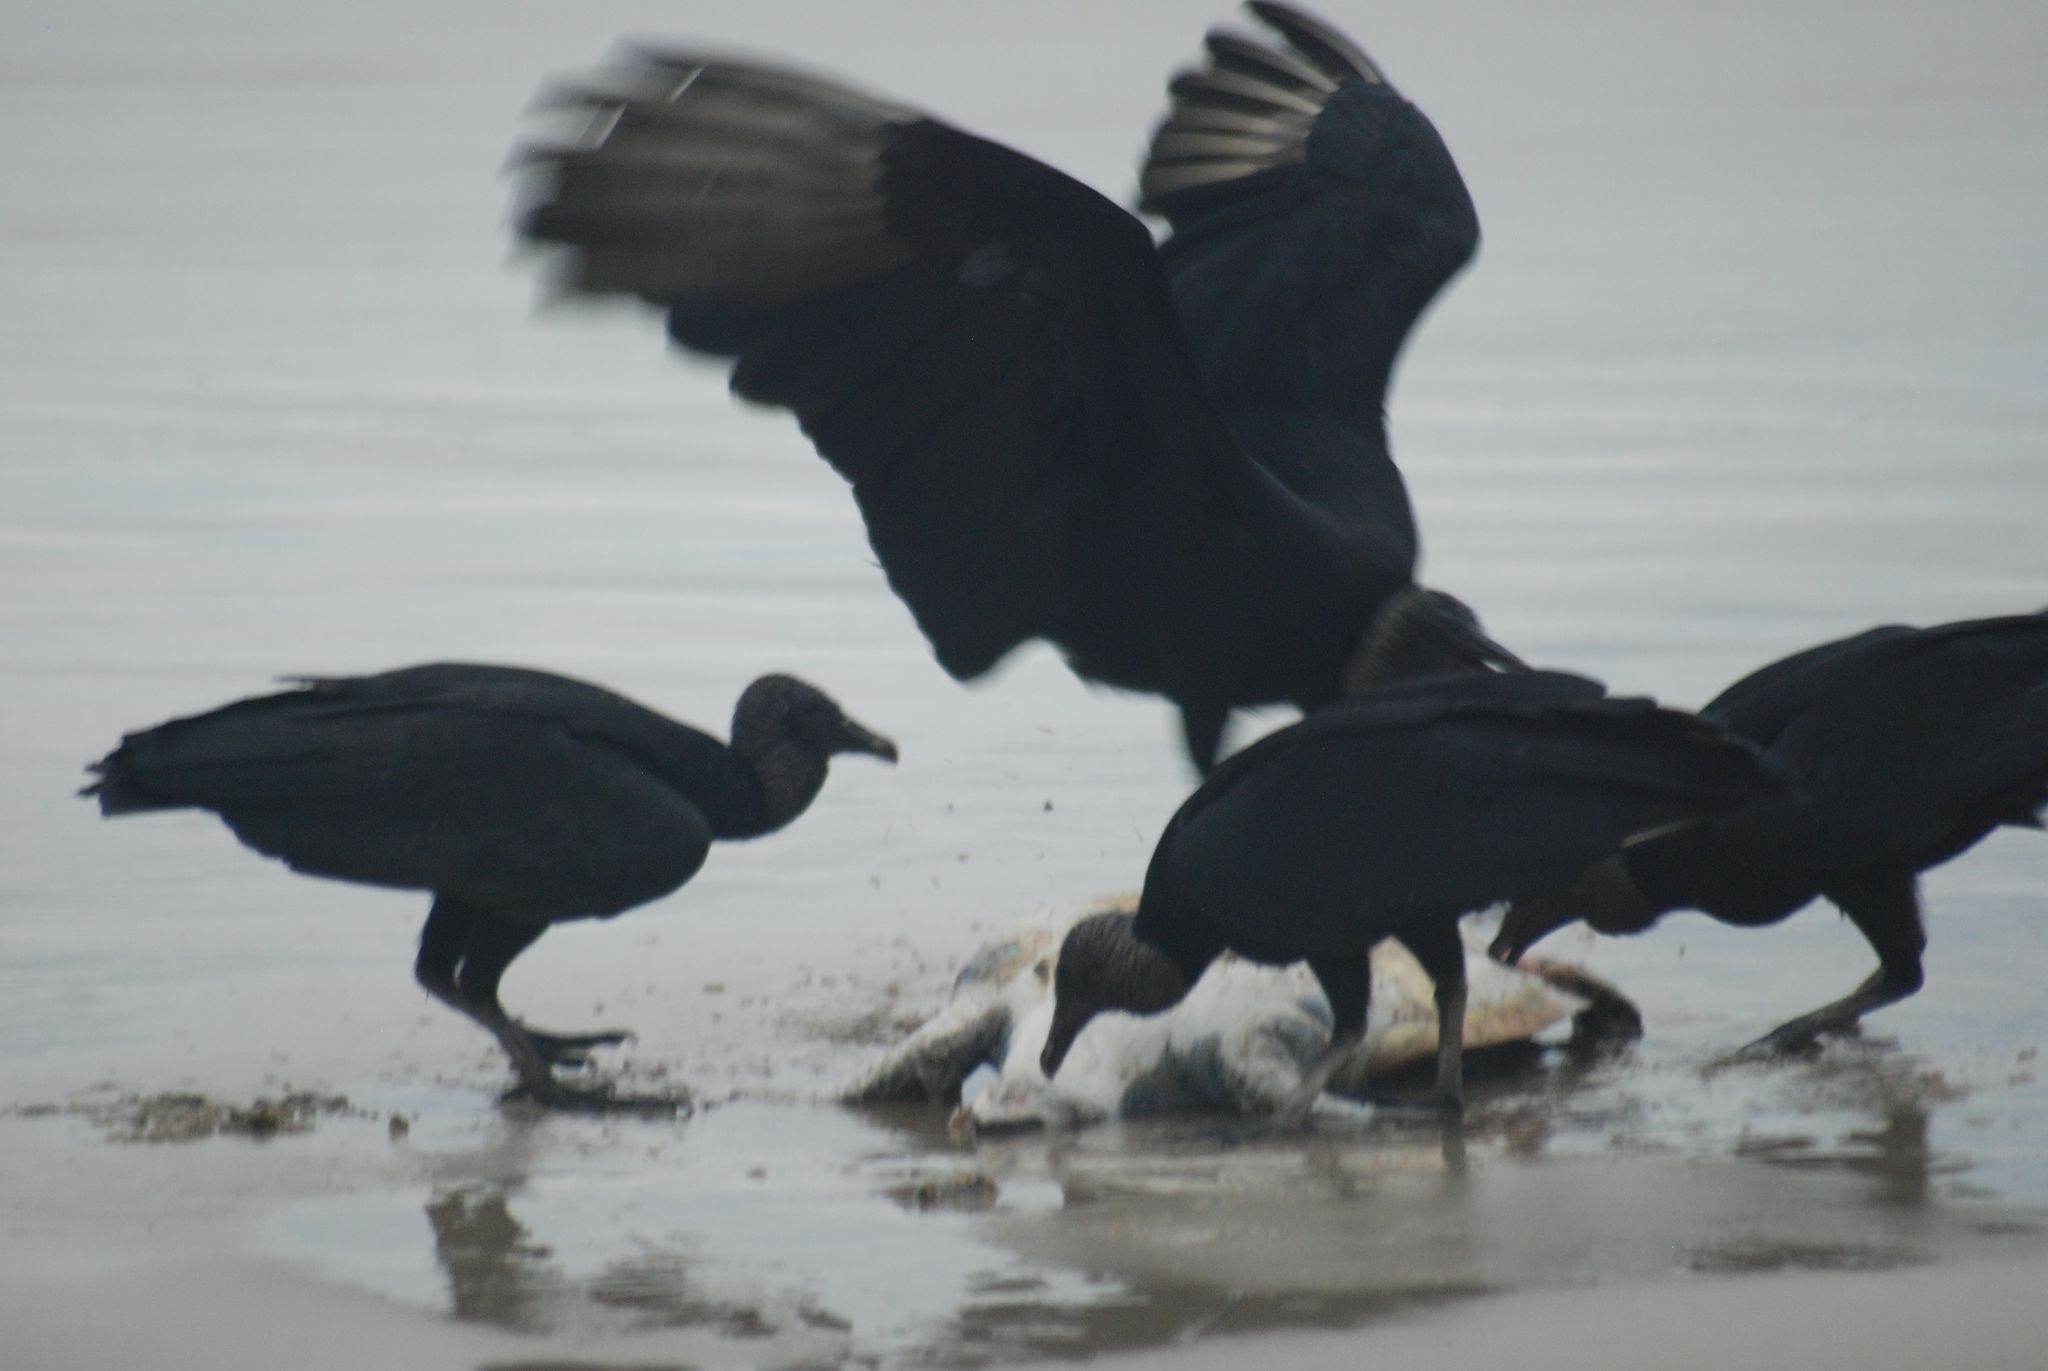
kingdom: Animalia
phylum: Chordata
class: Aves
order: Accipitriformes
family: Cathartidae
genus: Coragyps
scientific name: Coragyps atratus
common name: Black vulture
